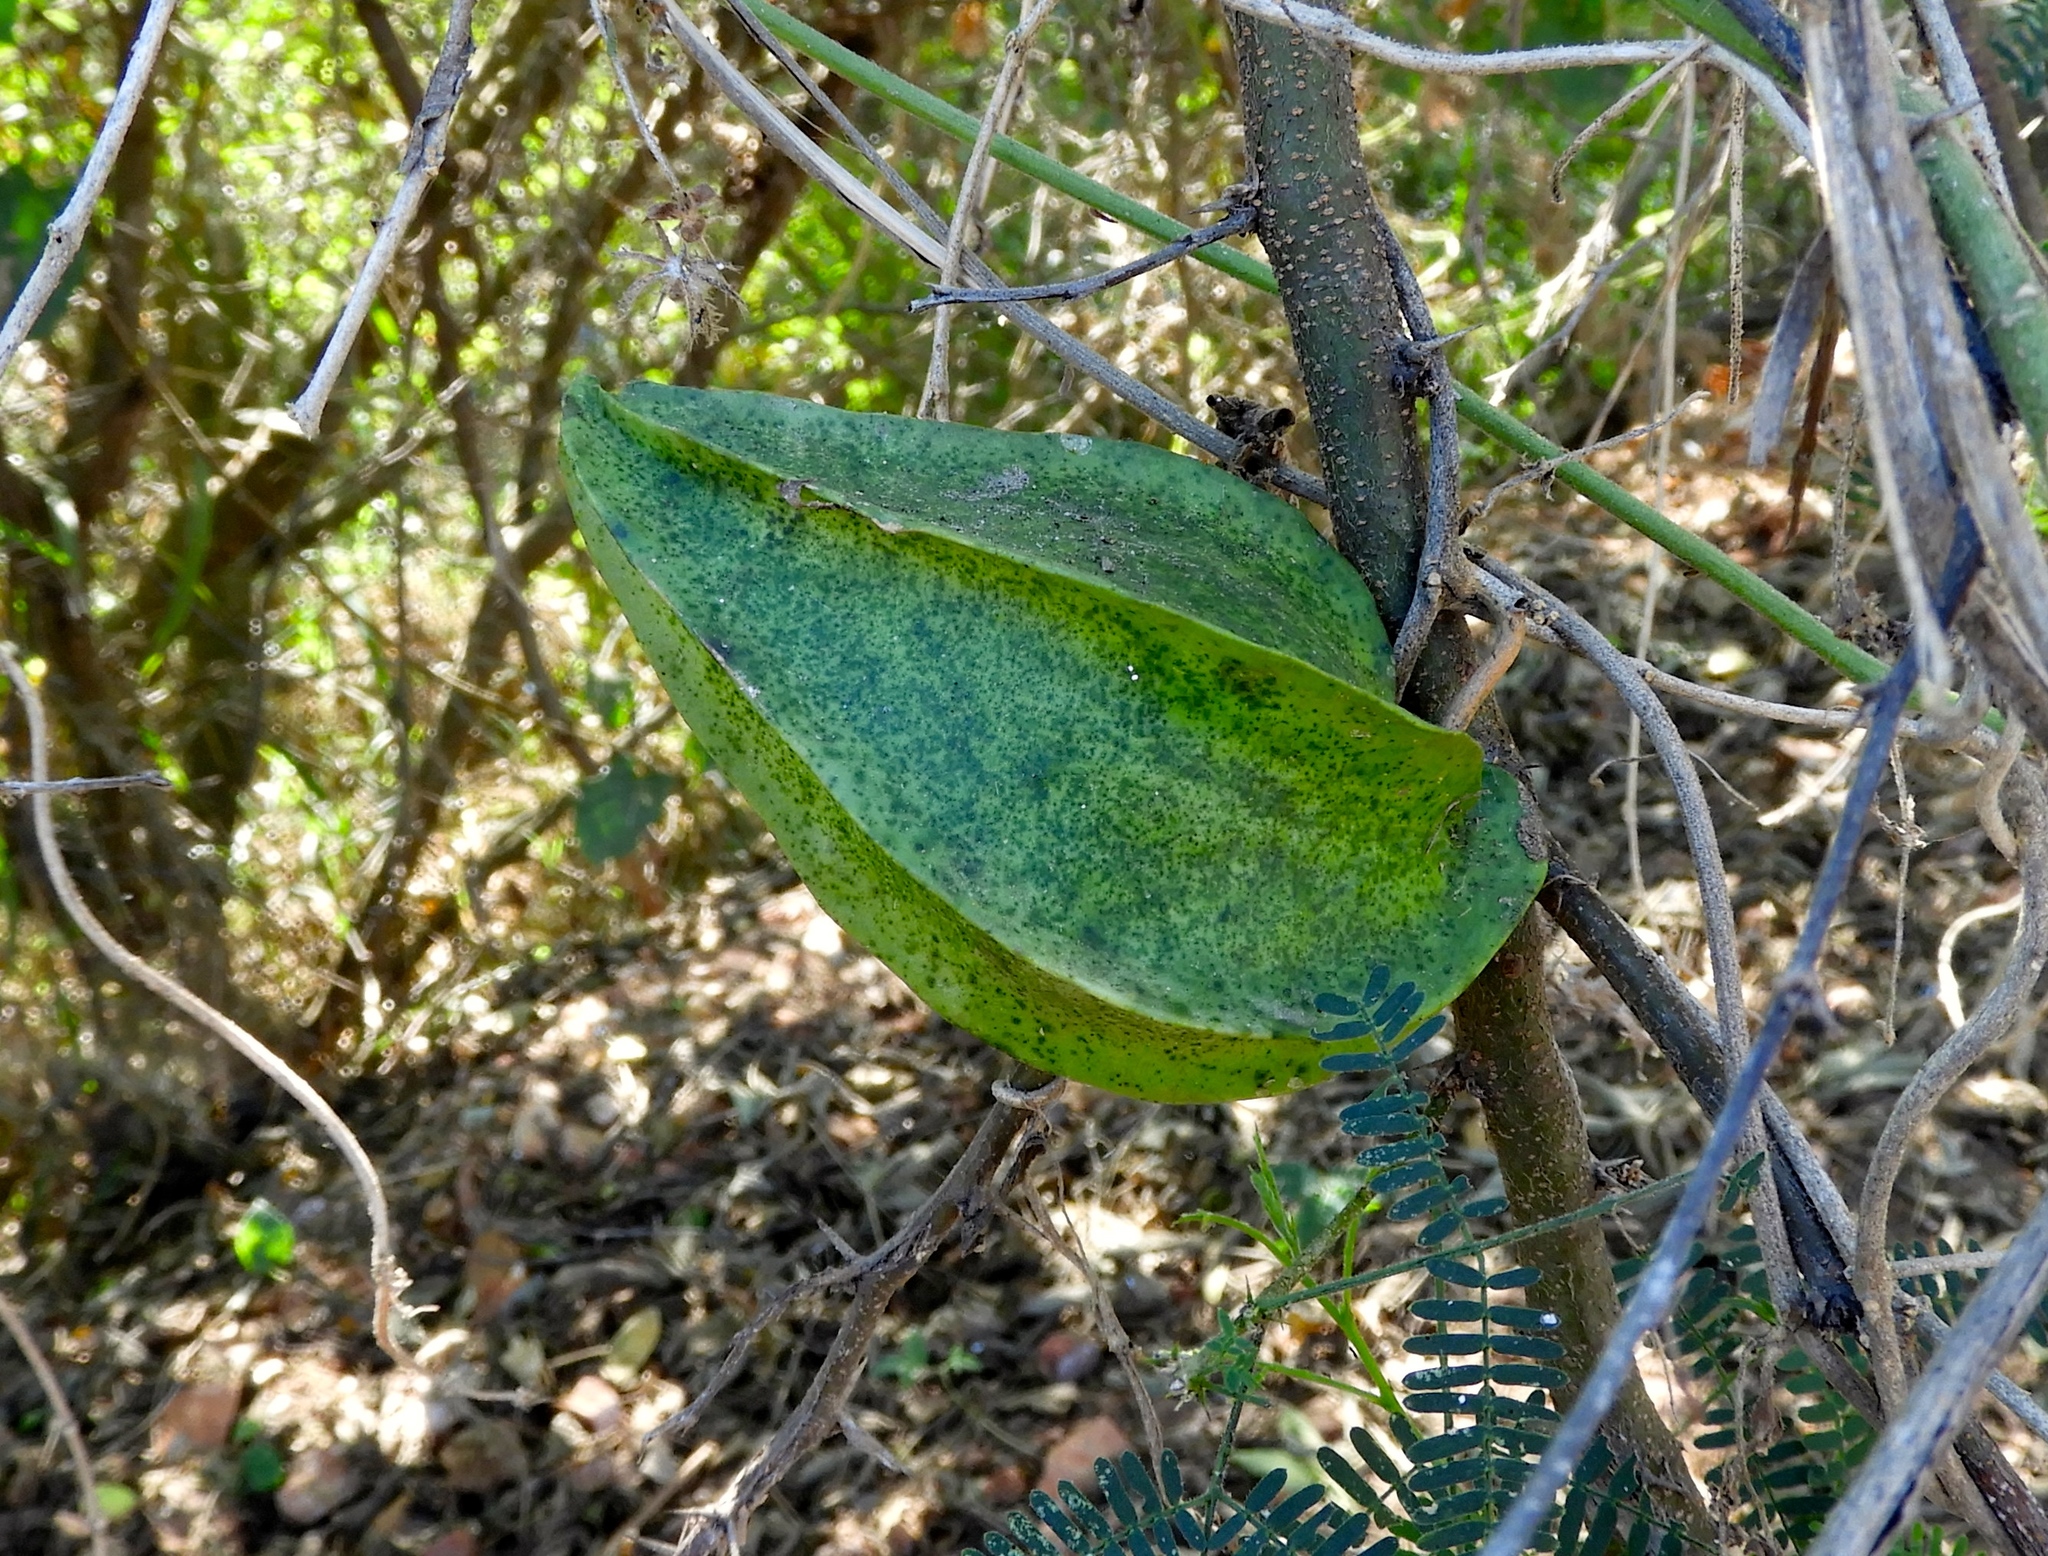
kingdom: Plantae
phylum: Tracheophyta
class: Magnoliopsida
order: Gentianales
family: Apocynaceae
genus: Gonolobus
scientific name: Gonolobus naturalistae
